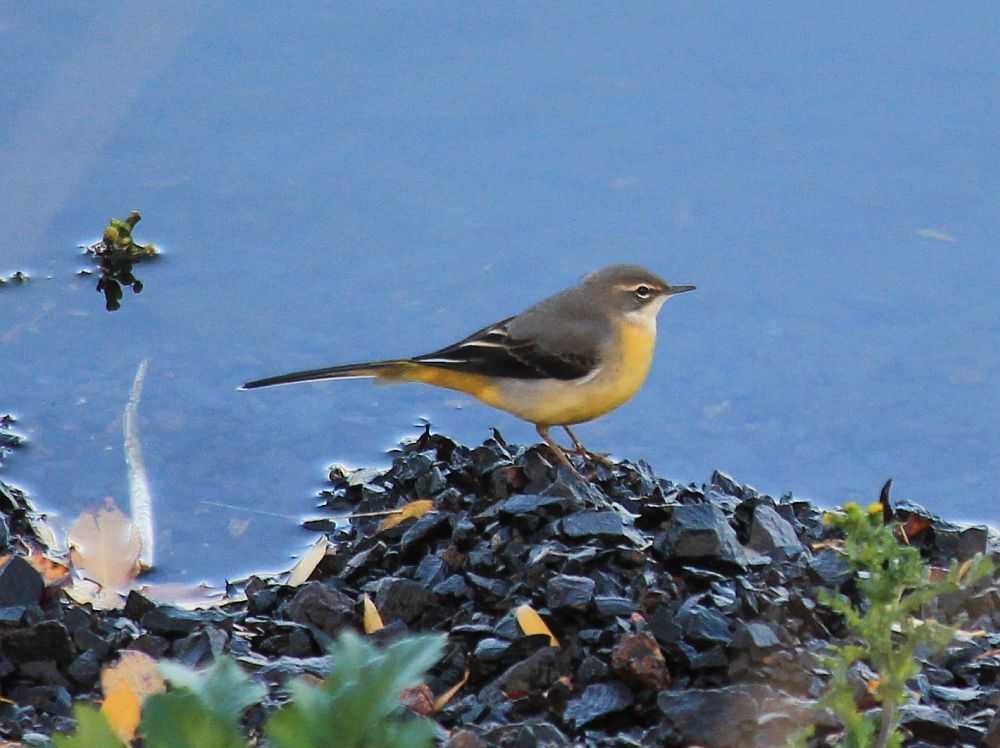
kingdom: Animalia
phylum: Chordata
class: Aves
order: Passeriformes
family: Motacillidae
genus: Motacilla
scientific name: Motacilla cinerea
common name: Grey wagtail
